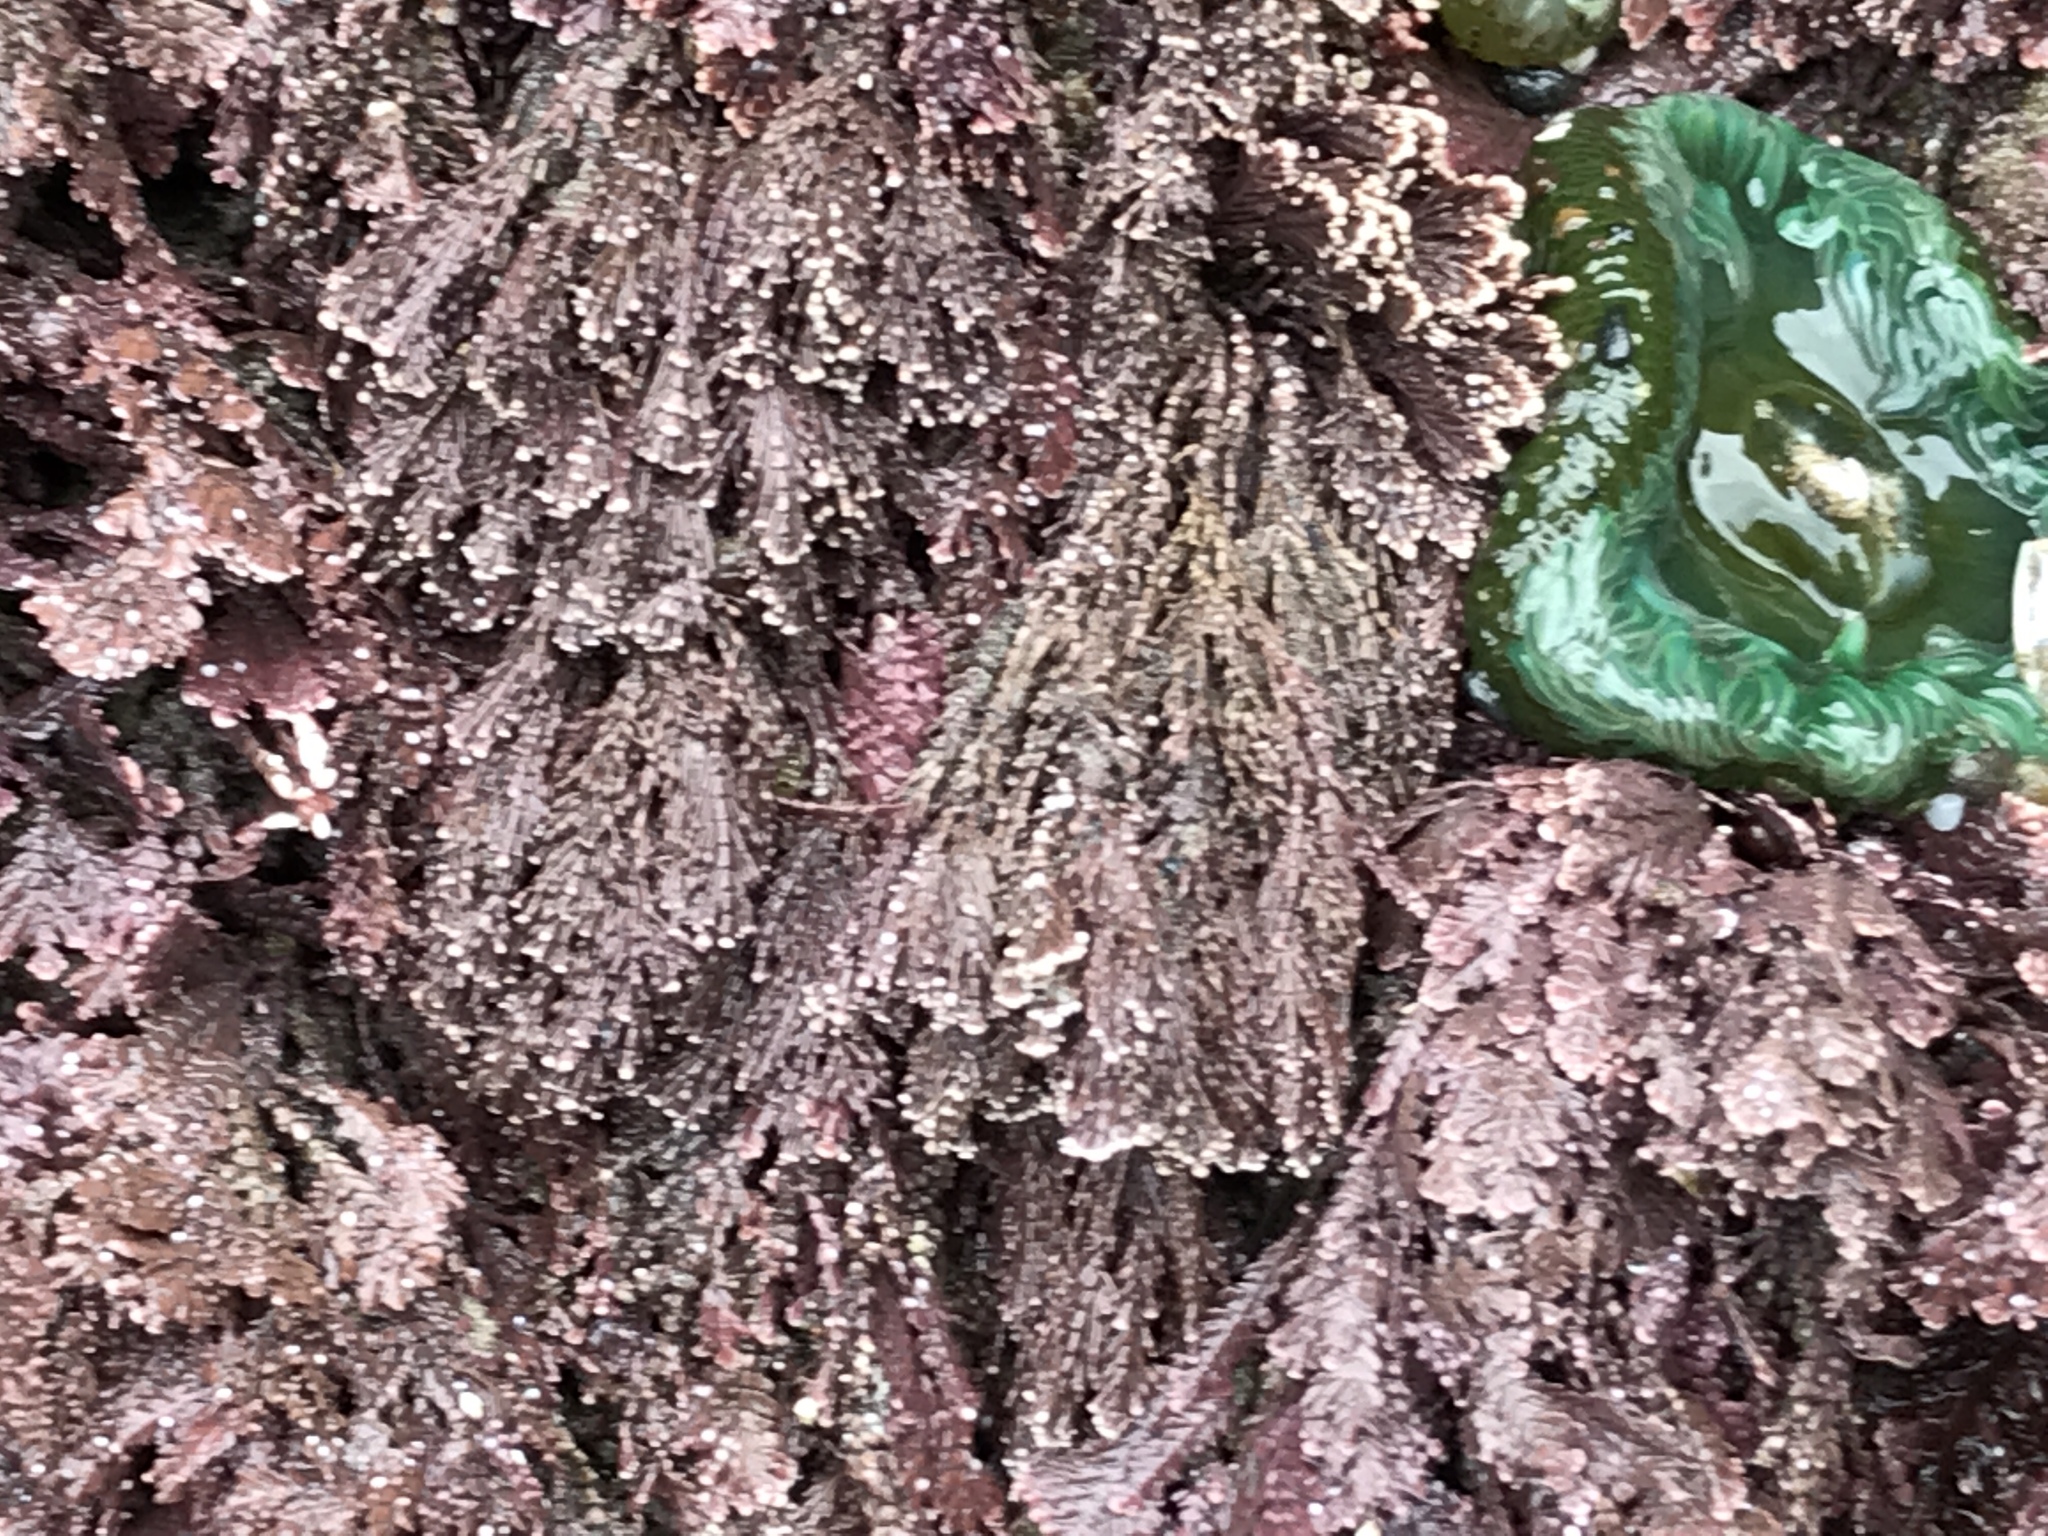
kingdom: Plantae
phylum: Rhodophyta
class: Florideophyceae
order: Corallinales
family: Corallinaceae
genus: Corallina
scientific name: Corallina vancouveriensis
